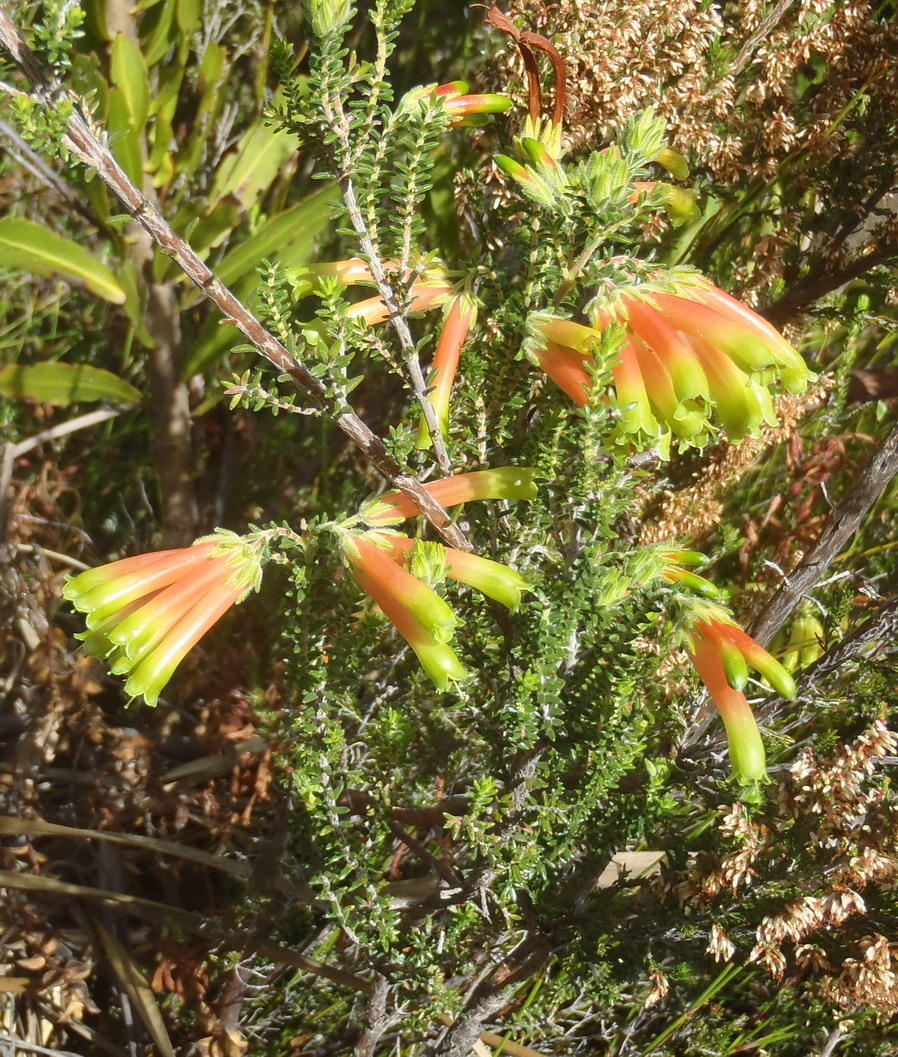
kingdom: Plantae
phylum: Tracheophyta
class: Magnoliopsida
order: Ericales
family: Ericaceae
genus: Erica
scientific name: Erica croceovirens
